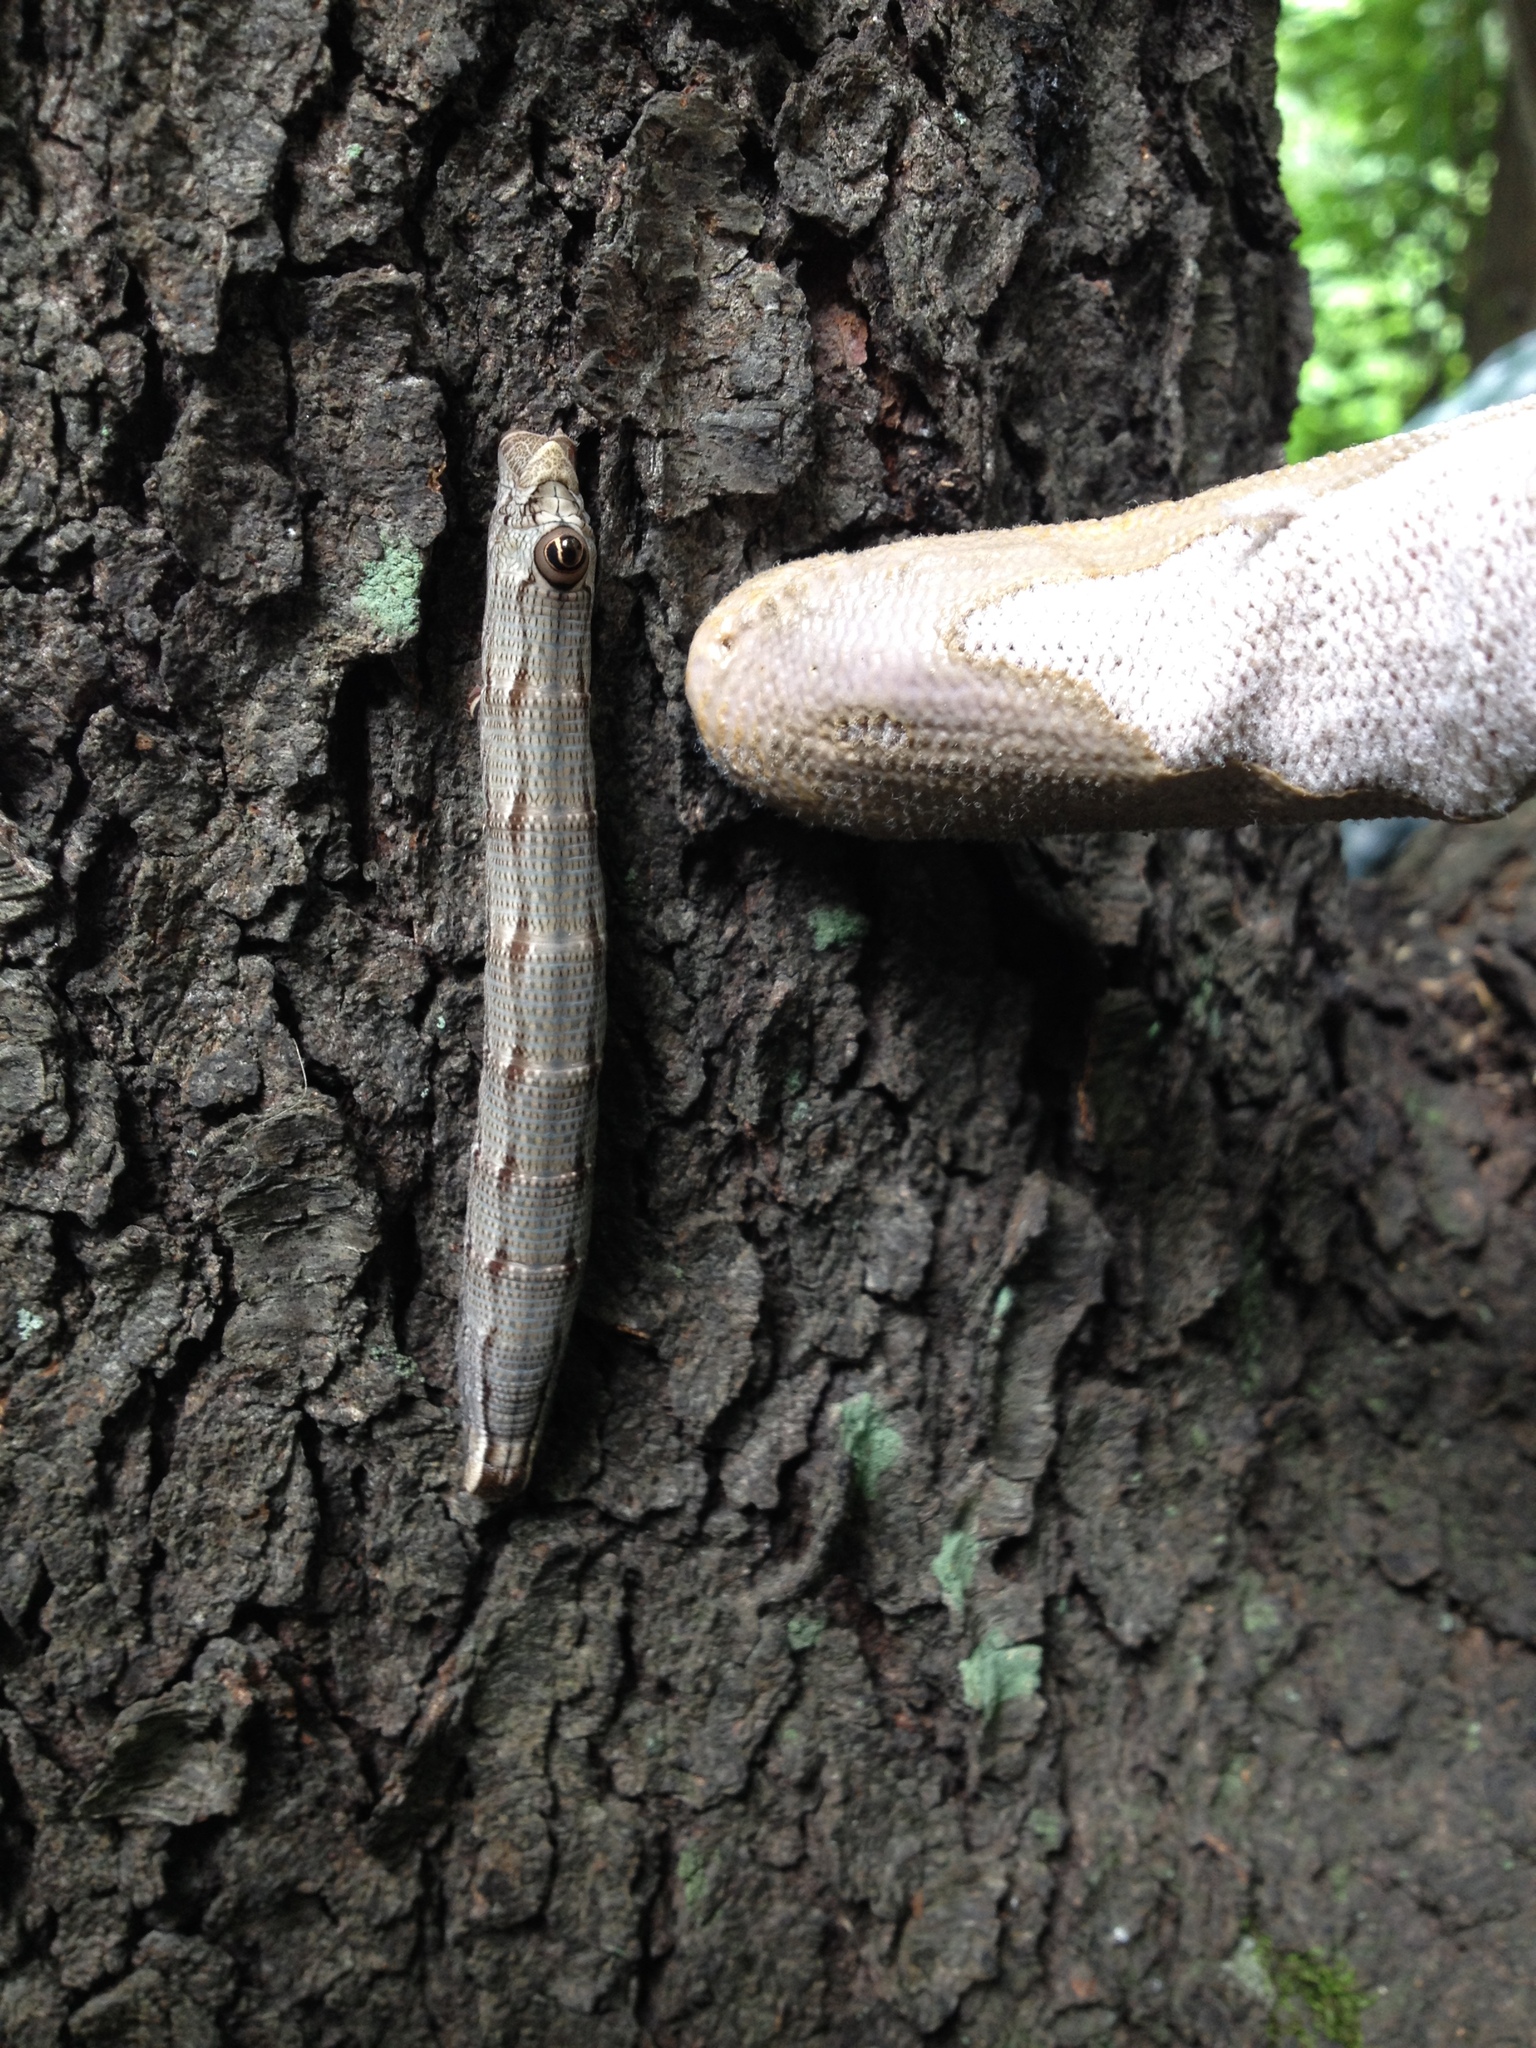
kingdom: Animalia
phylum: Arthropoda
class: Insecta
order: Lepidoptera
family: Sphingidae
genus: Sphecodina
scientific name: Sphecodina abbottii
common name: Abbott's sphinx
